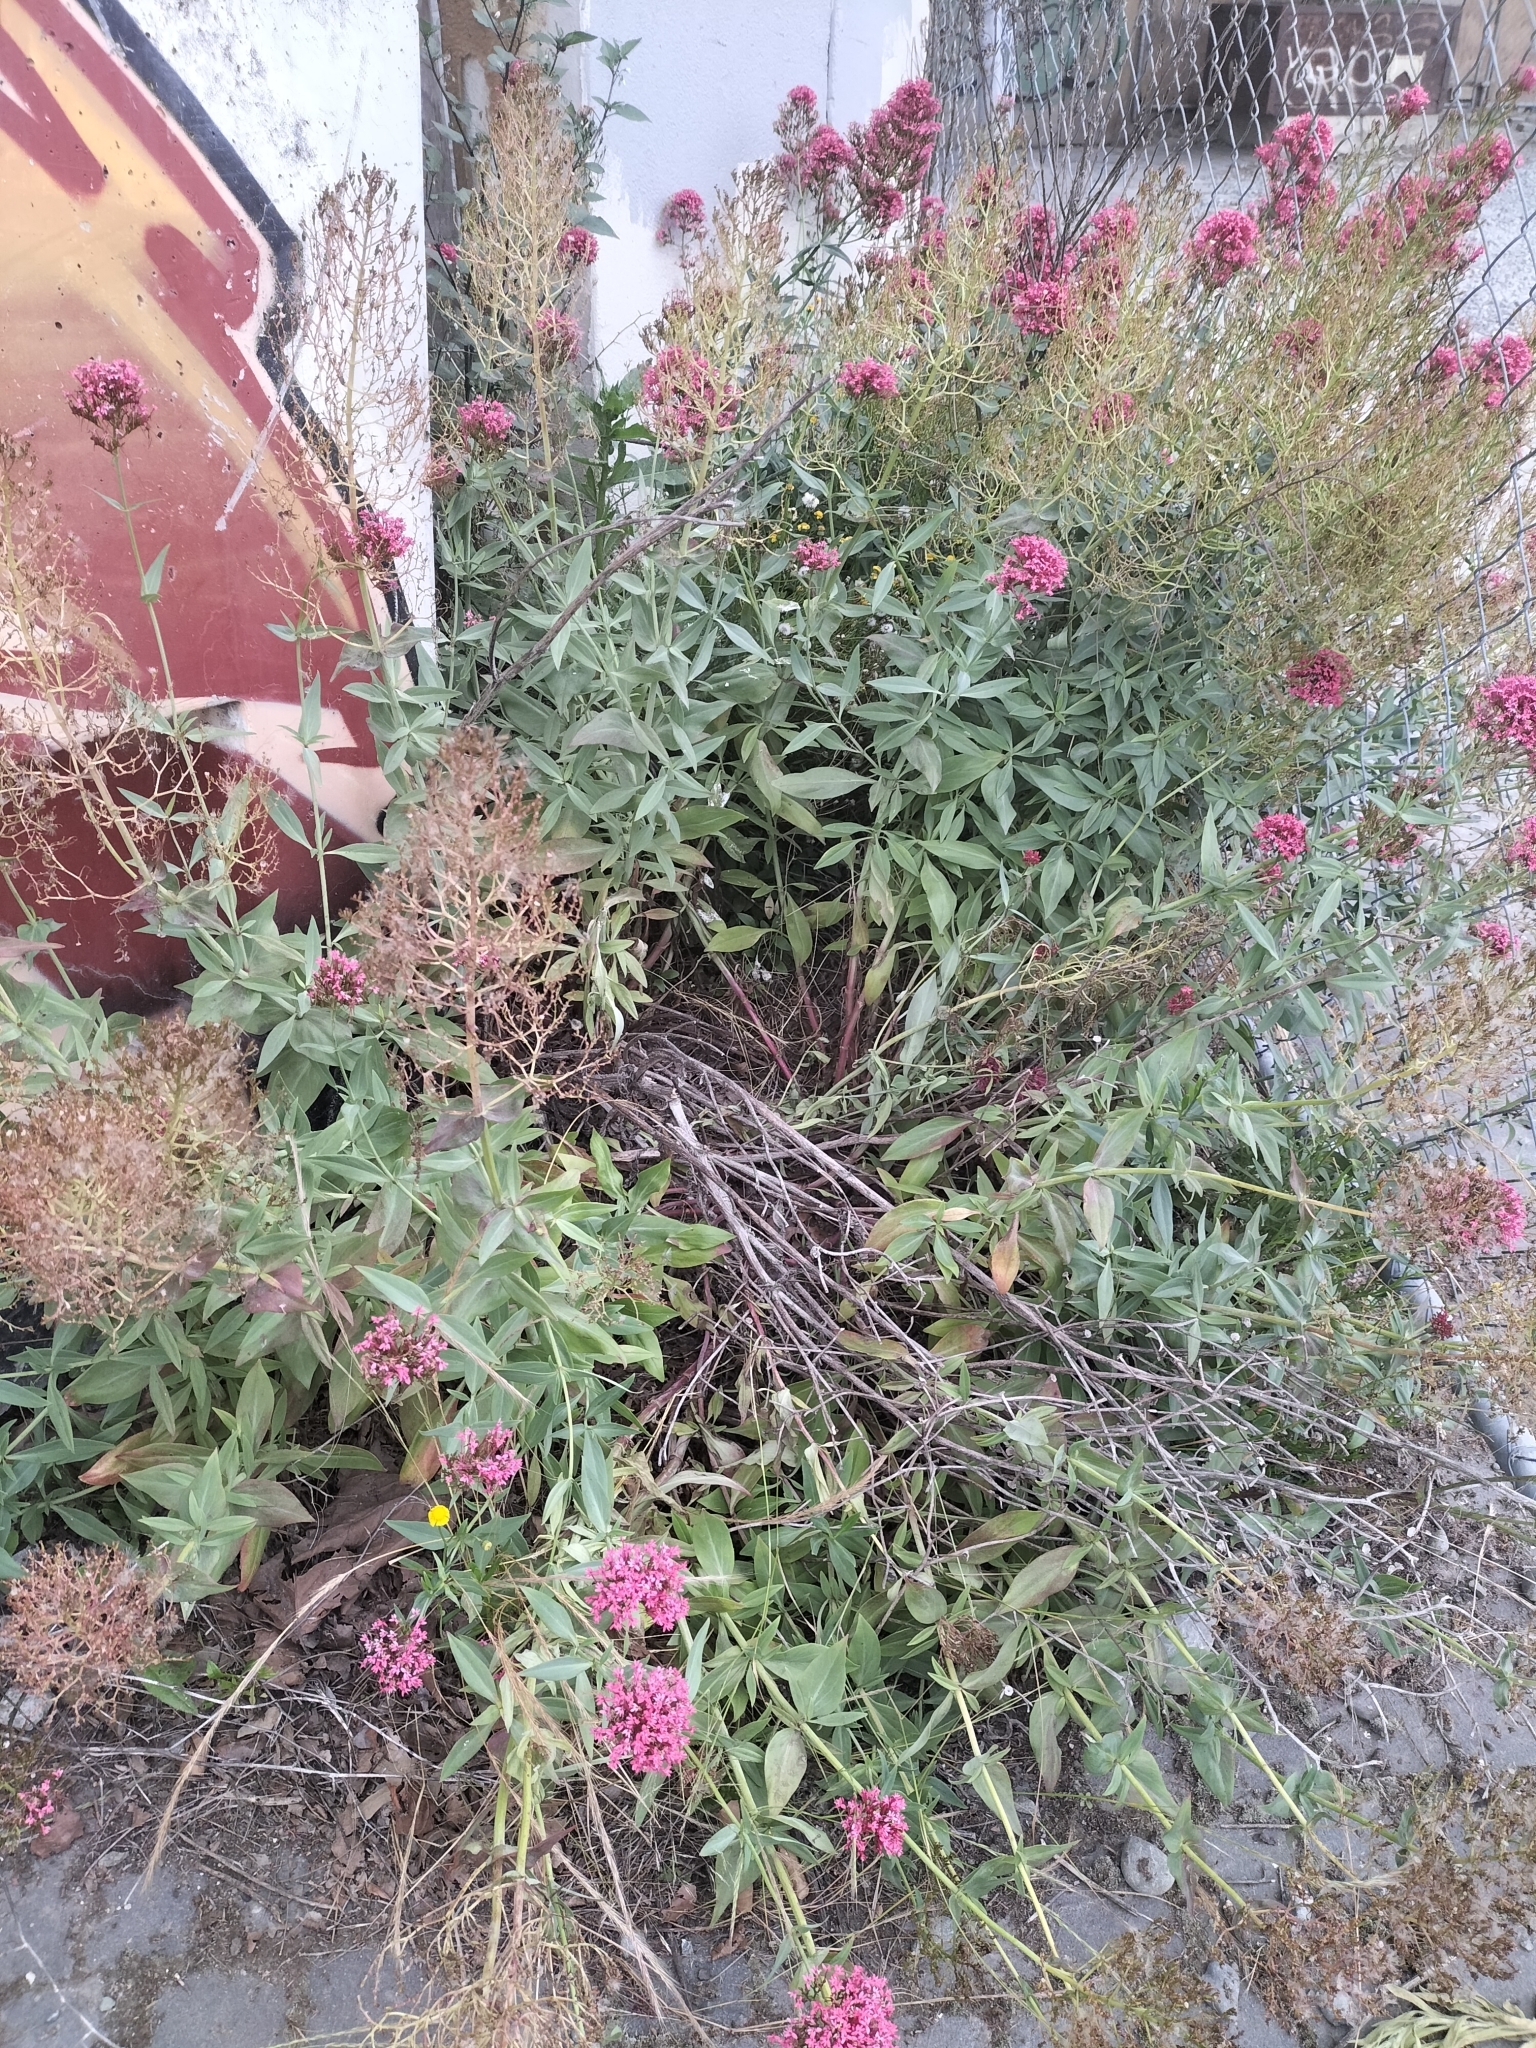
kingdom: Plantae
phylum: Tracheophyta
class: Magnoliopsida
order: Dipsacales
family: Caprifoliaceae
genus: Centranthus
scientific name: Centranthus ruber
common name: Red valerian
